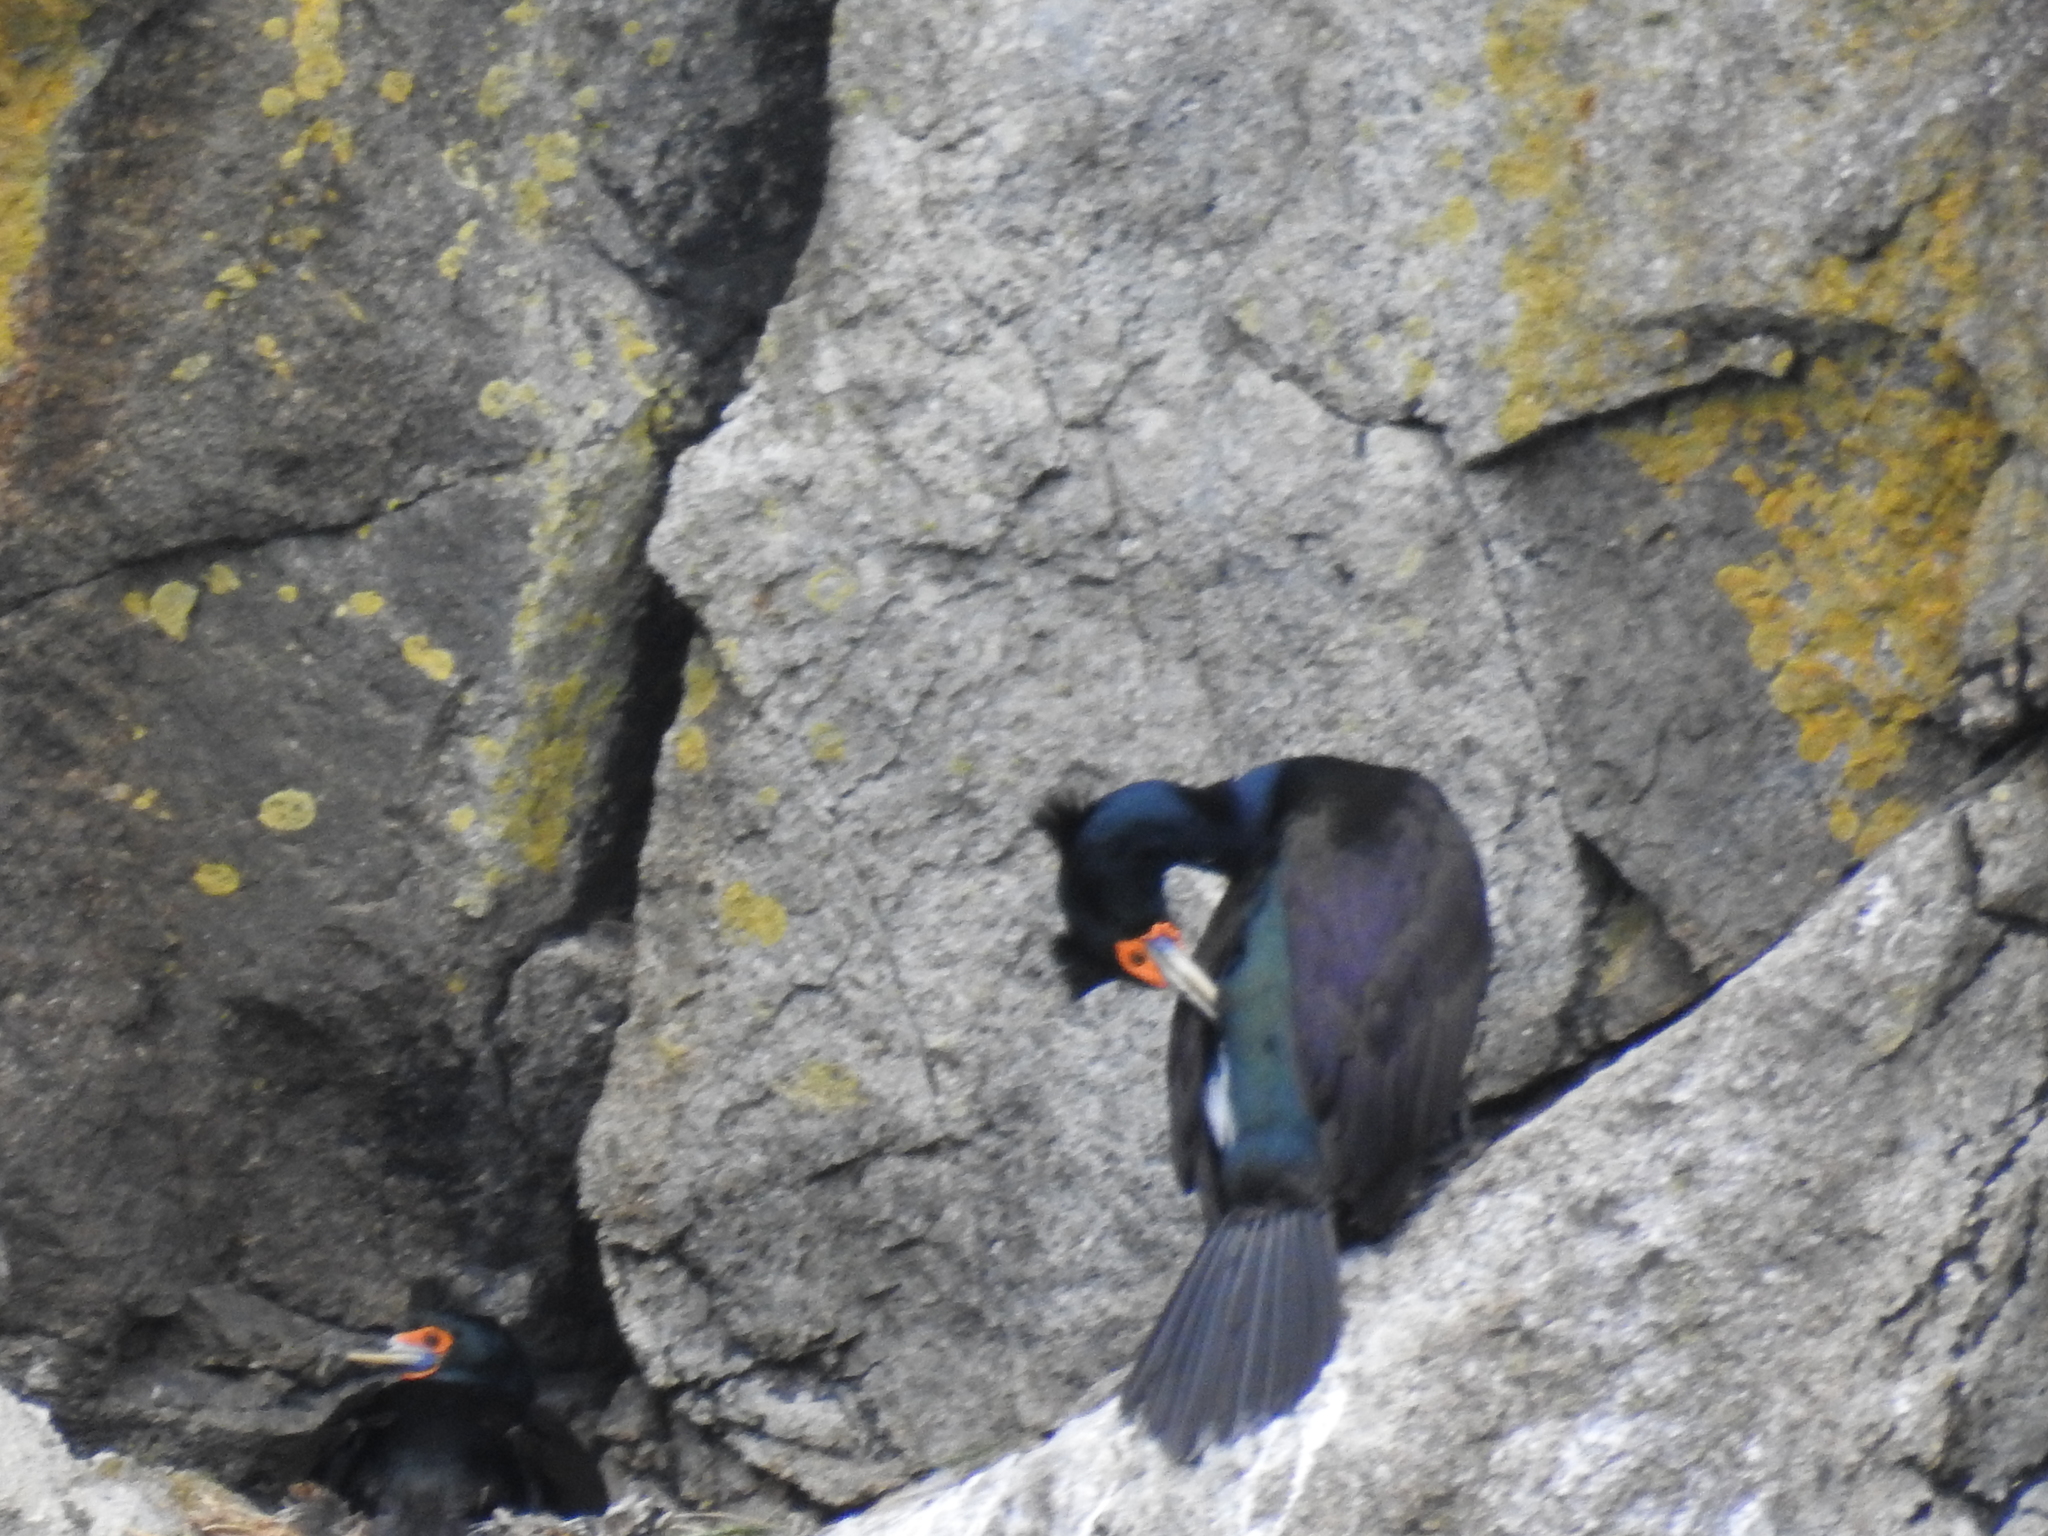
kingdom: Animalia
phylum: Chordata
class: Aves
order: Suliformes
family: Phalacrocoracidae
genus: Phalacrocorax
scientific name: Phalacrocorax urile
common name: Red-faced cormorant
